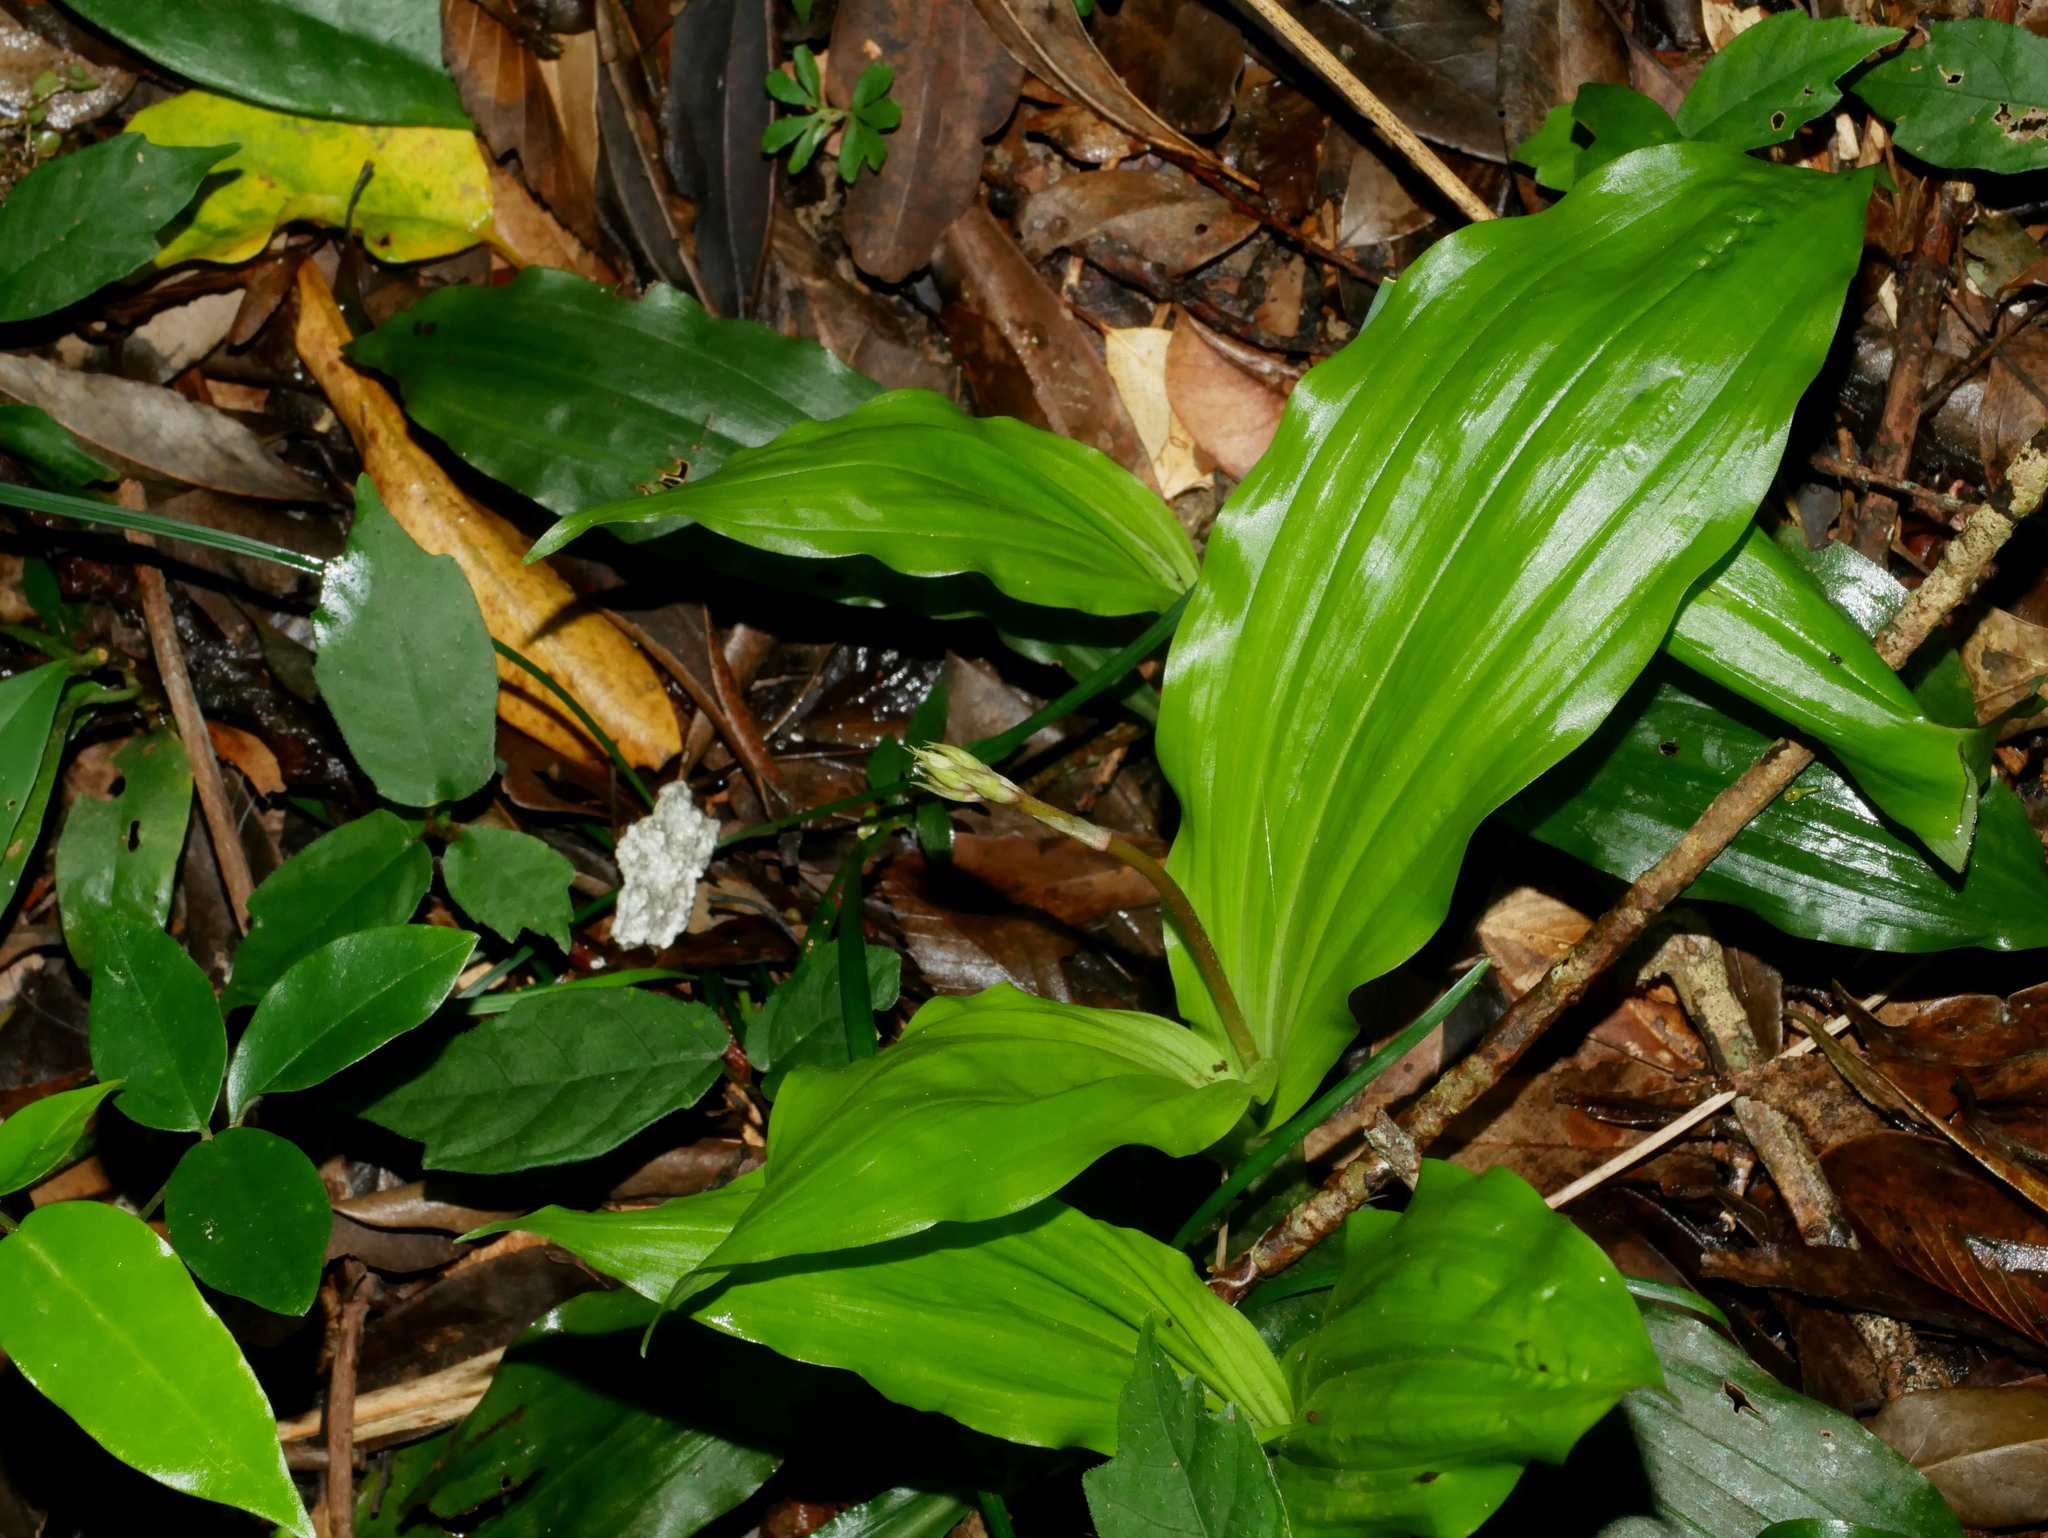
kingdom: Plantae
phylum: Tracheophyta
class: Liliopsida
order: Asparagales
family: Orchidaceae
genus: Calanthe
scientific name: Calanthe arisanensis
